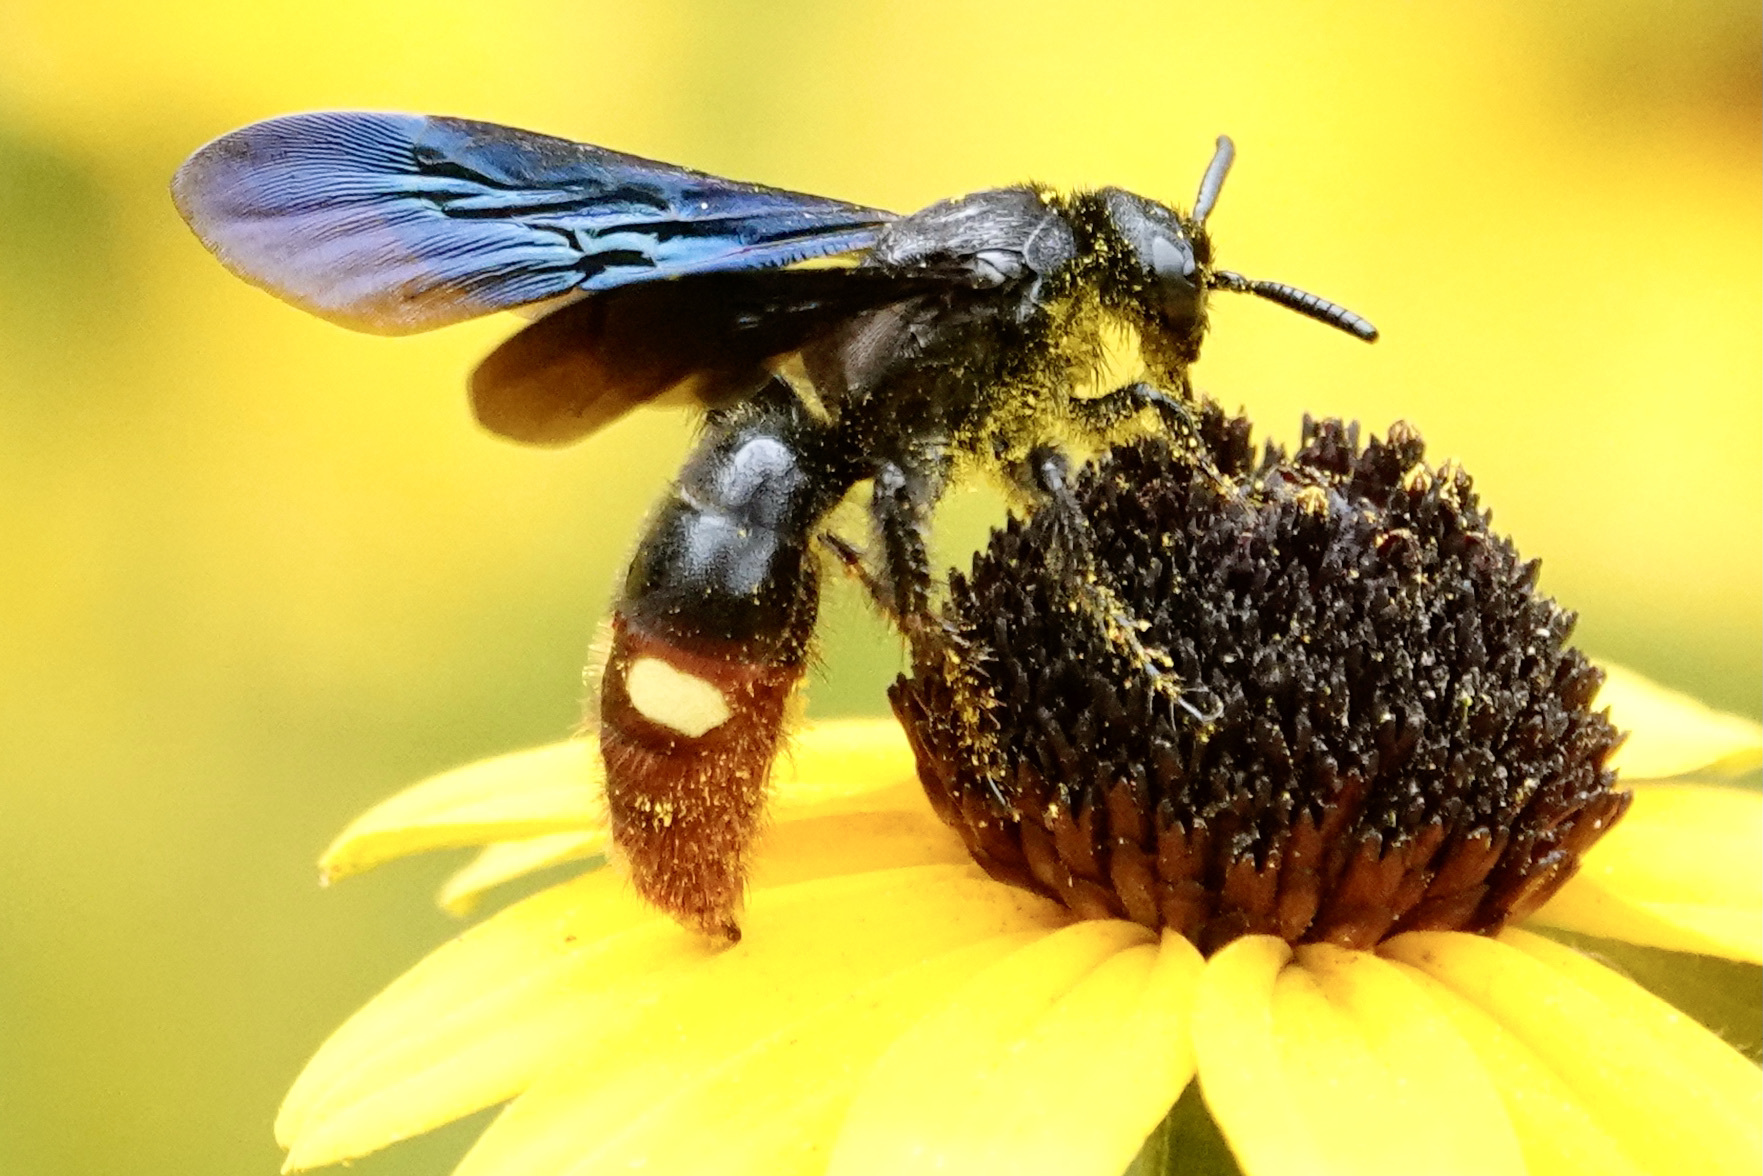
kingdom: Animalia
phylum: Arthropoda
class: Insecta
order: Hymenoptera
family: Scoliidae
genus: Scolia
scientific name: Scolia dubia
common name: Blue-winged scoliid wasp
